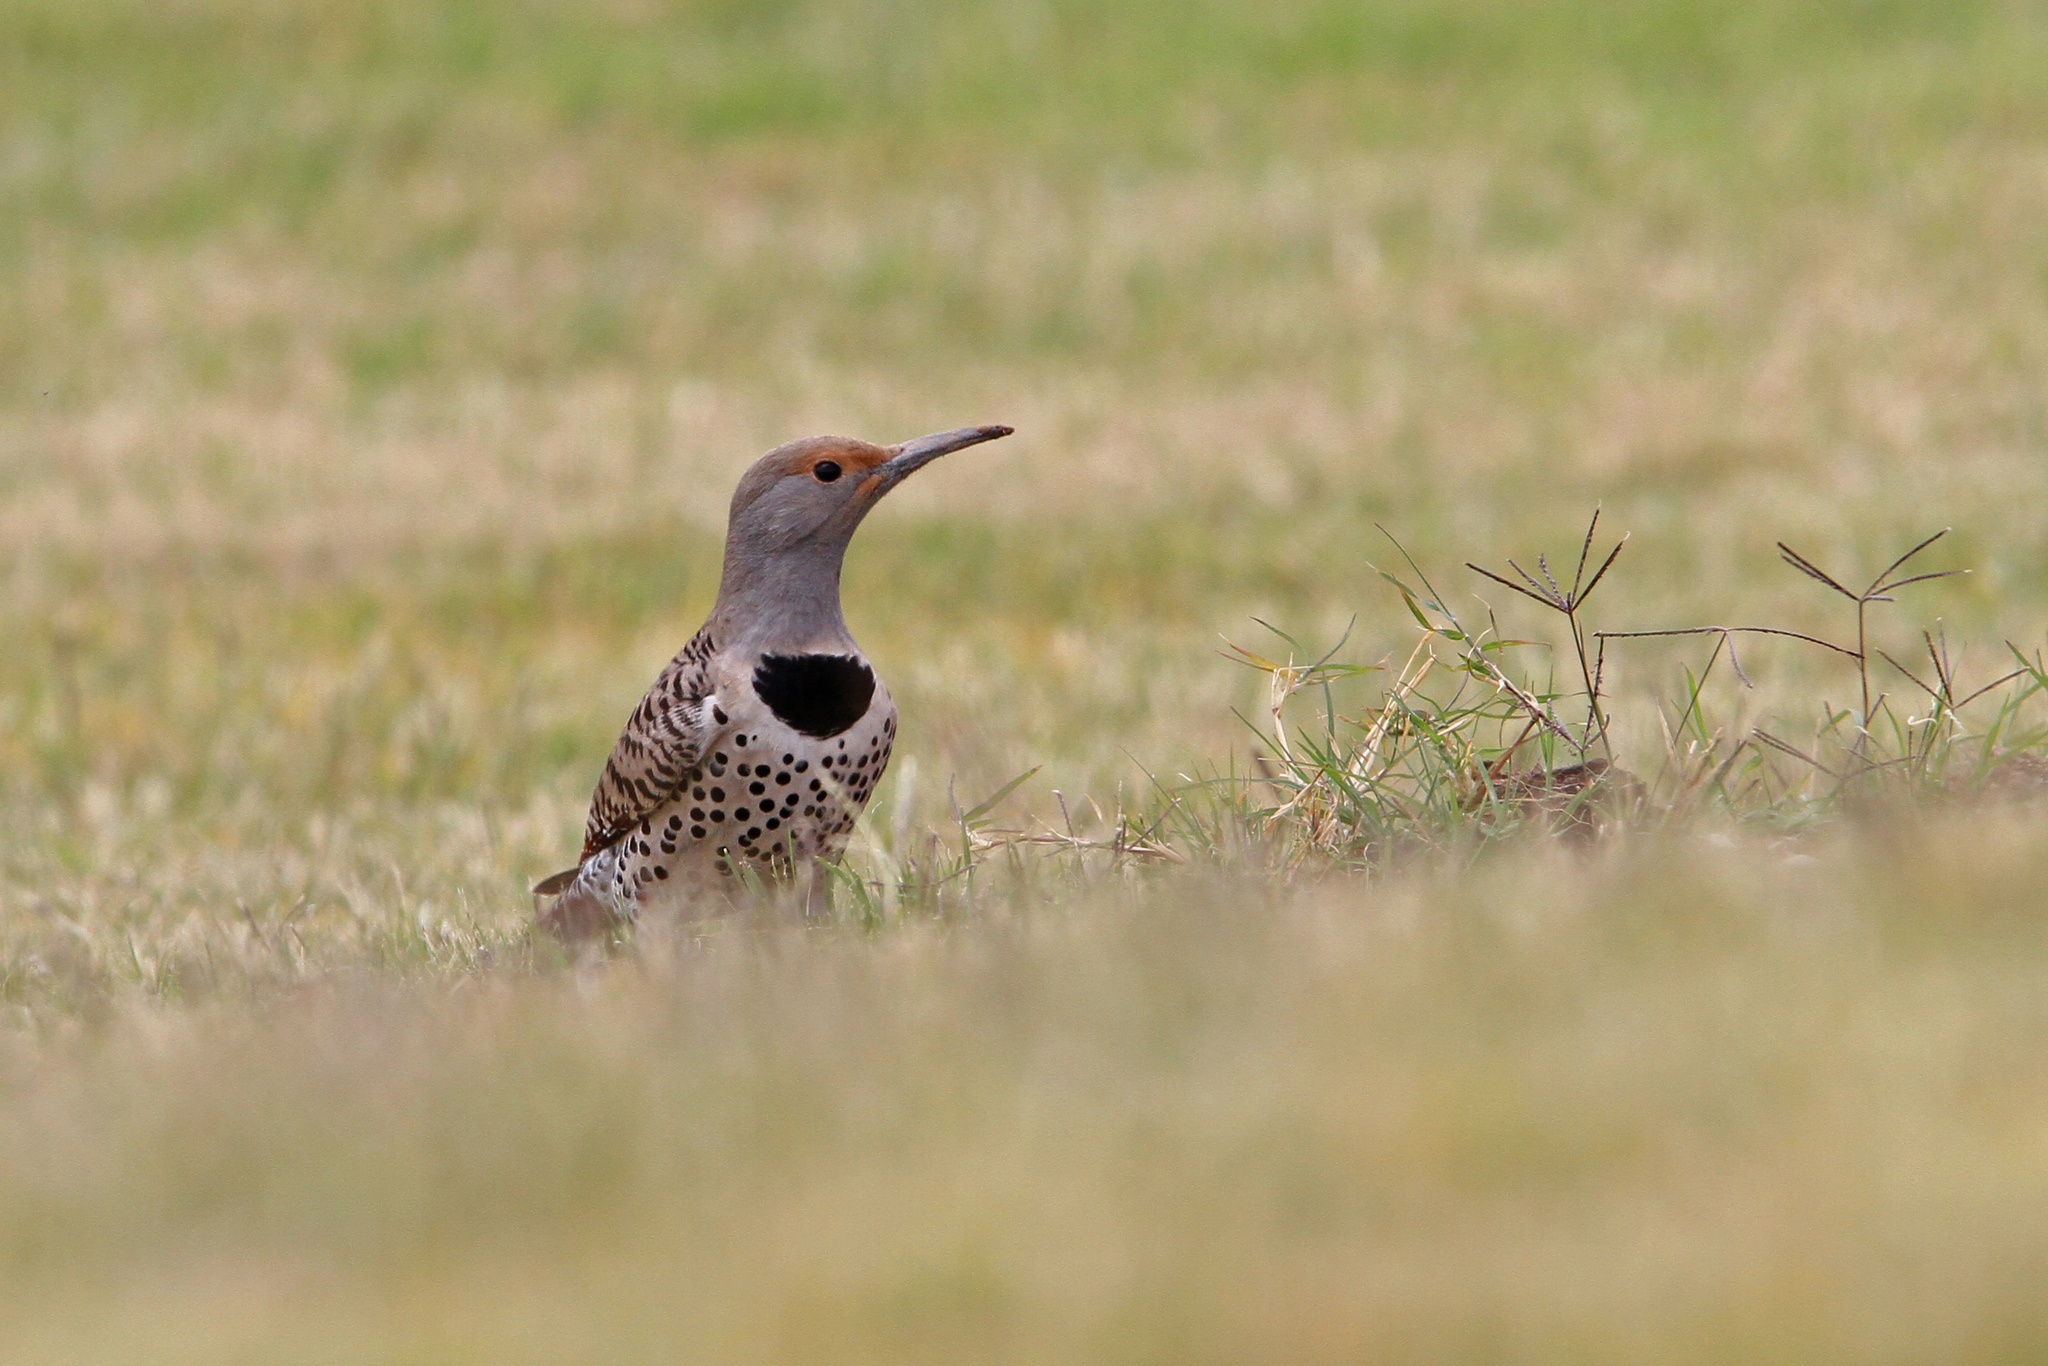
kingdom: Animalia
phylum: Chordata
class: Aves
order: Piciformes
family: Picidae
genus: Colaptes
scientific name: Colaptes auratus
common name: Northern flicker
